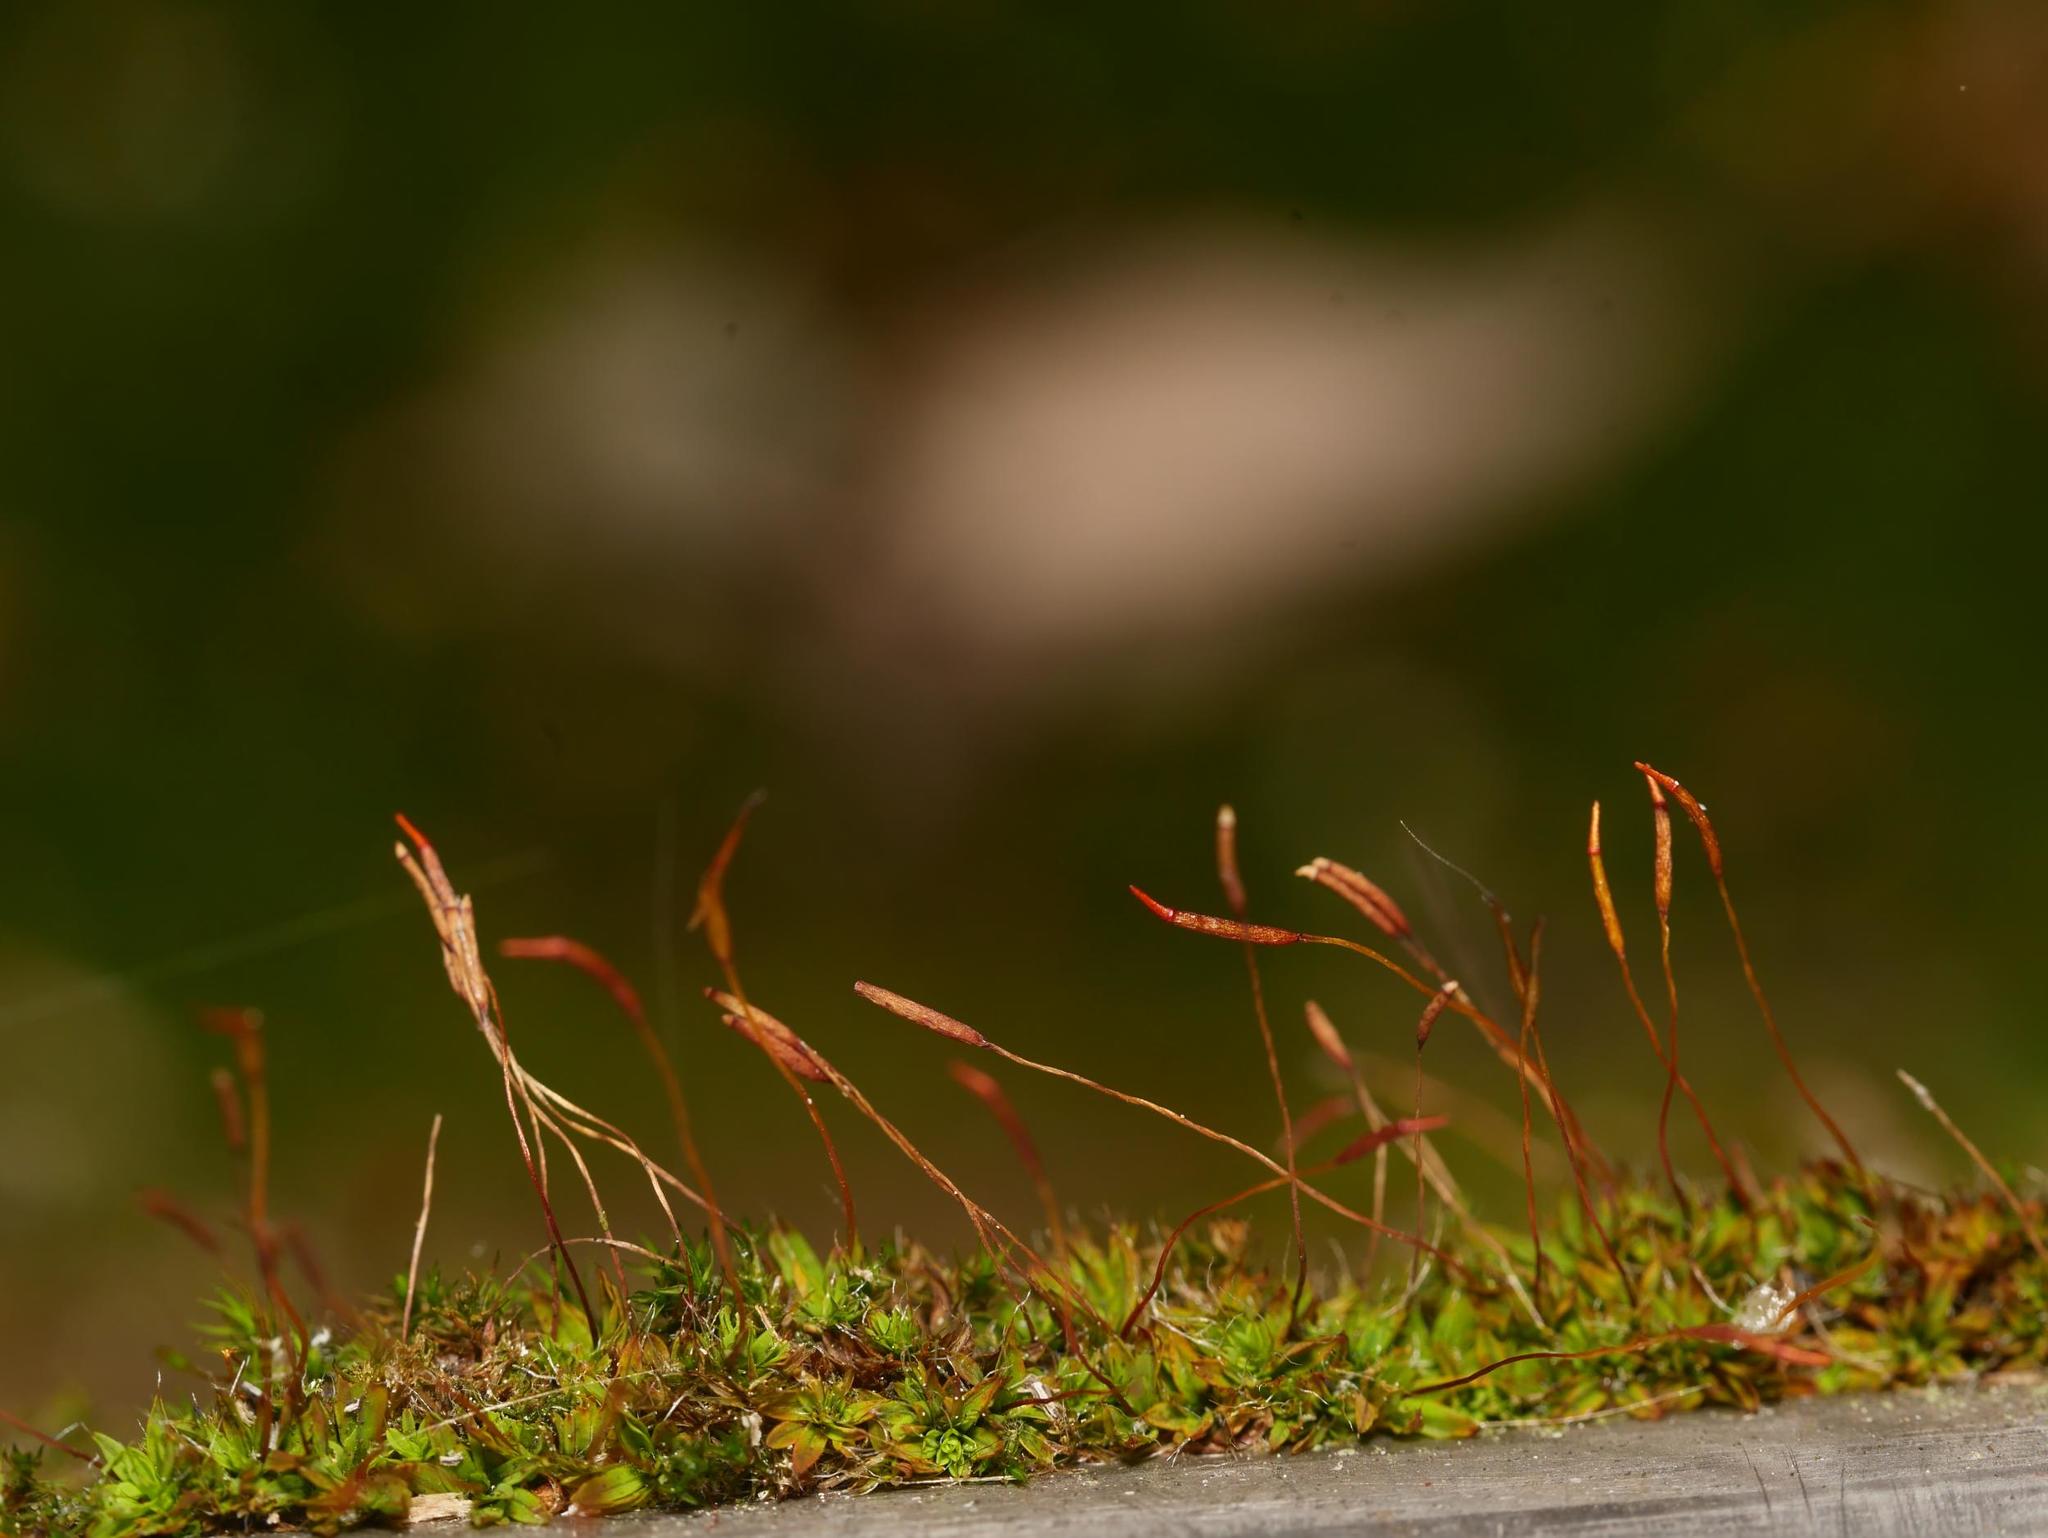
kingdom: Plantae
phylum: Bryophyta
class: Bryopsida
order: Pottiales
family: Pottiaceae
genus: Tortula
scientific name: Tortula muralis
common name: Wall screw-moss
